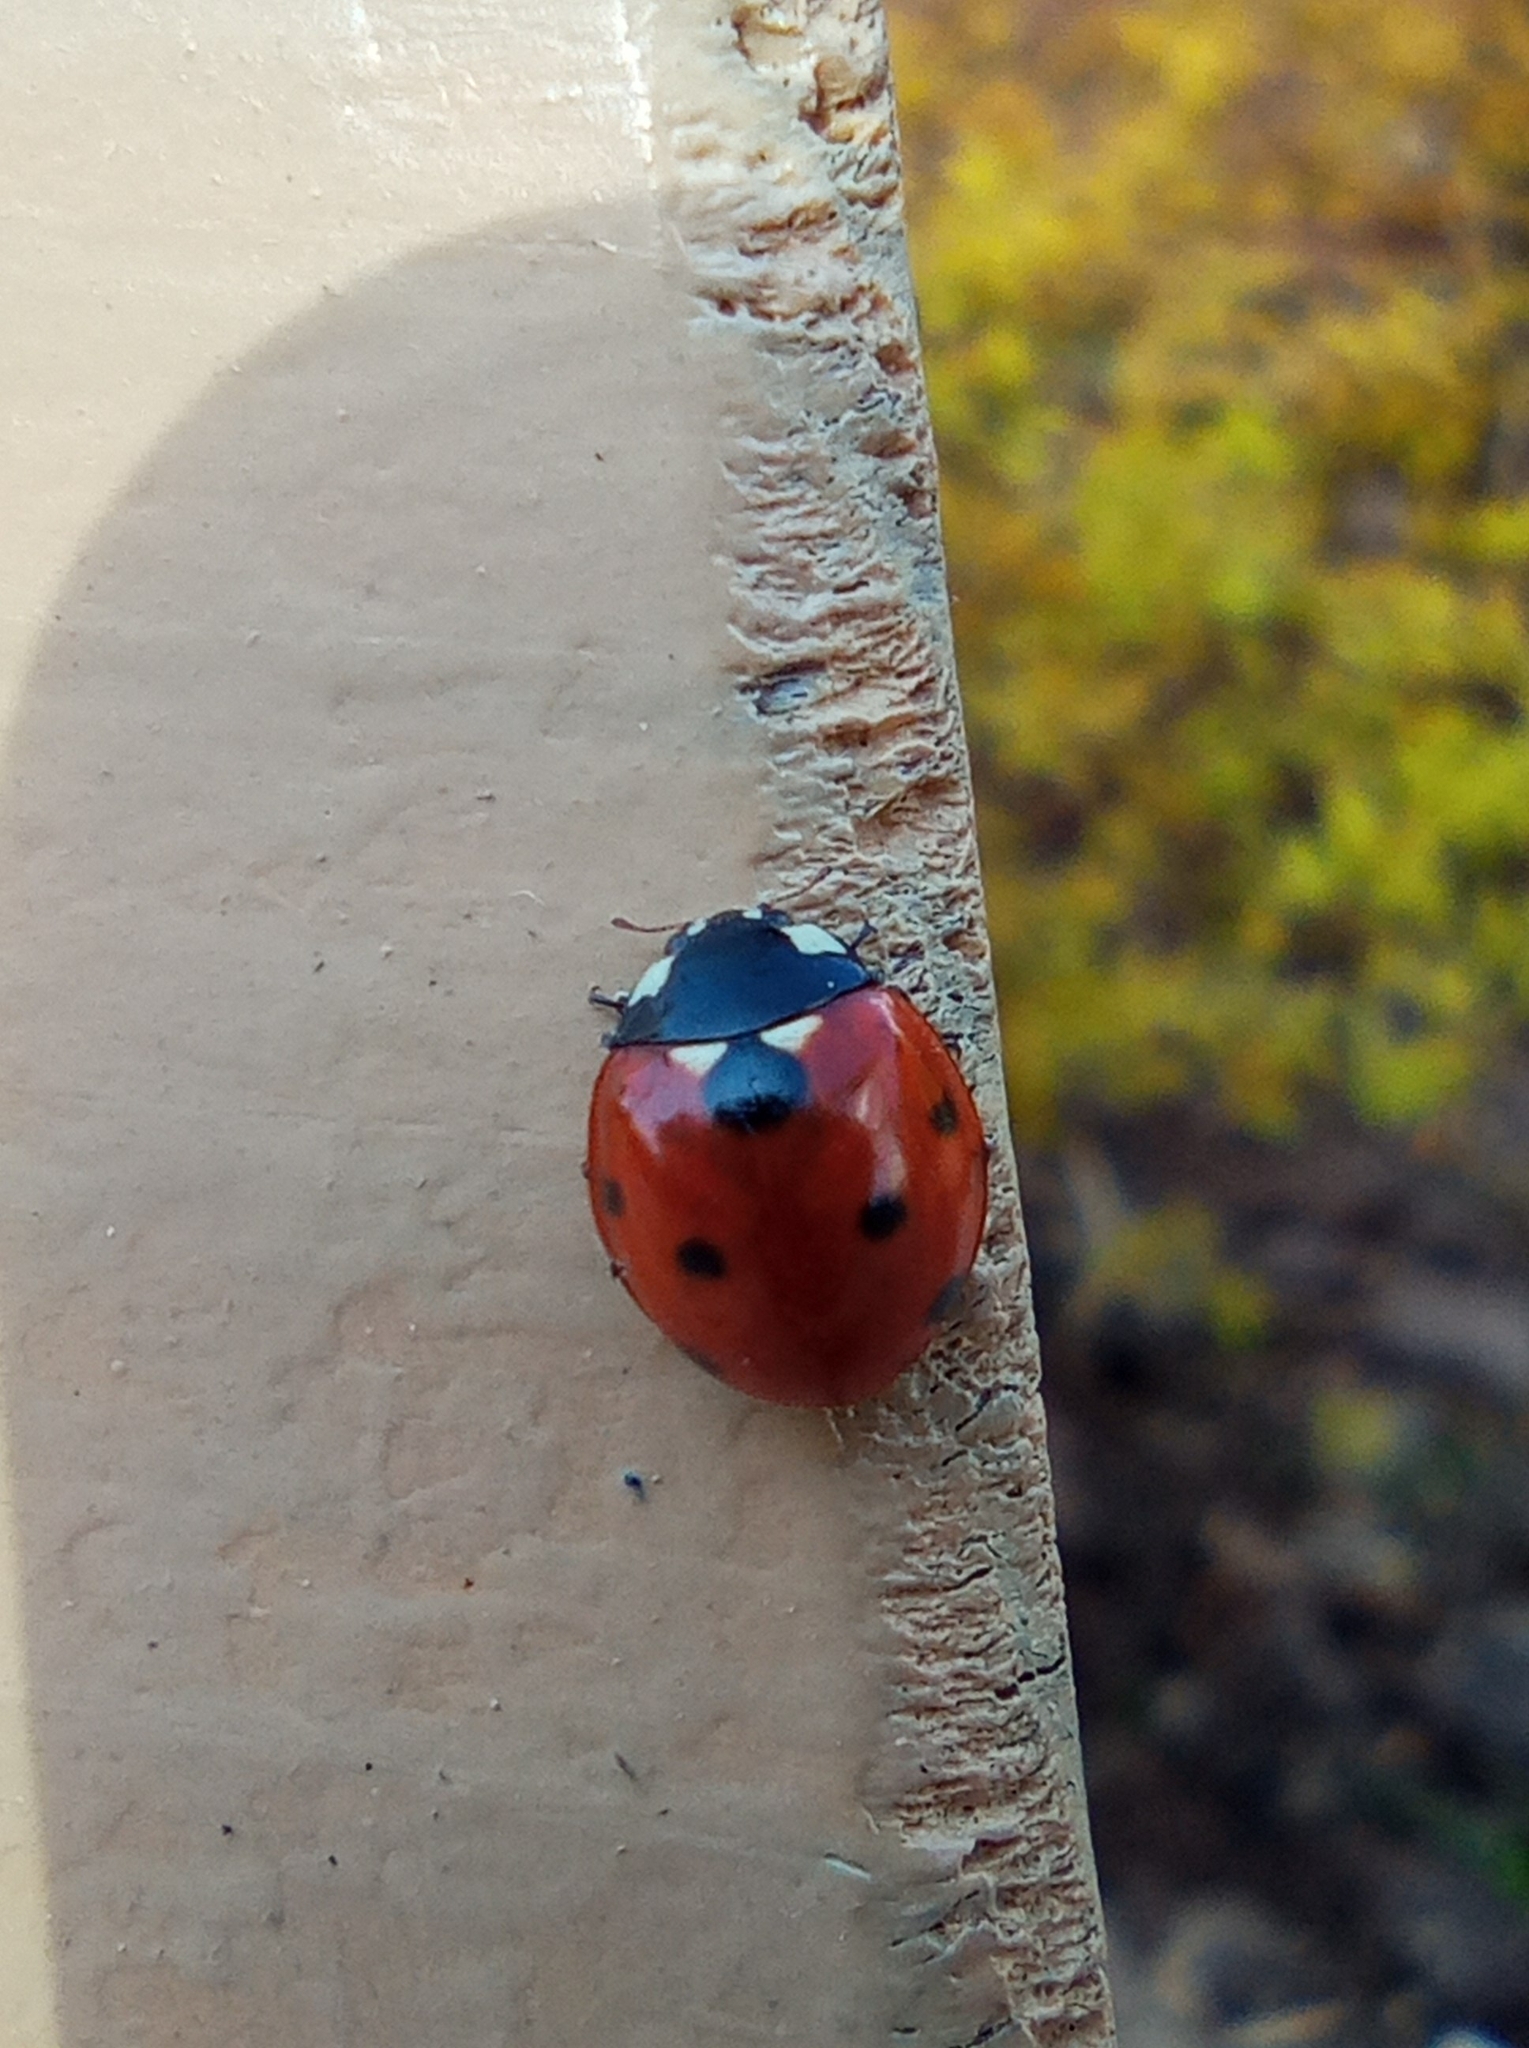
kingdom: Animalia
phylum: Arthropoda
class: Insecta
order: Coleoptera
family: Coccinellidae
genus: Coccinella
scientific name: Coccinella septempunctata
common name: Sevenspotted lady beetle
